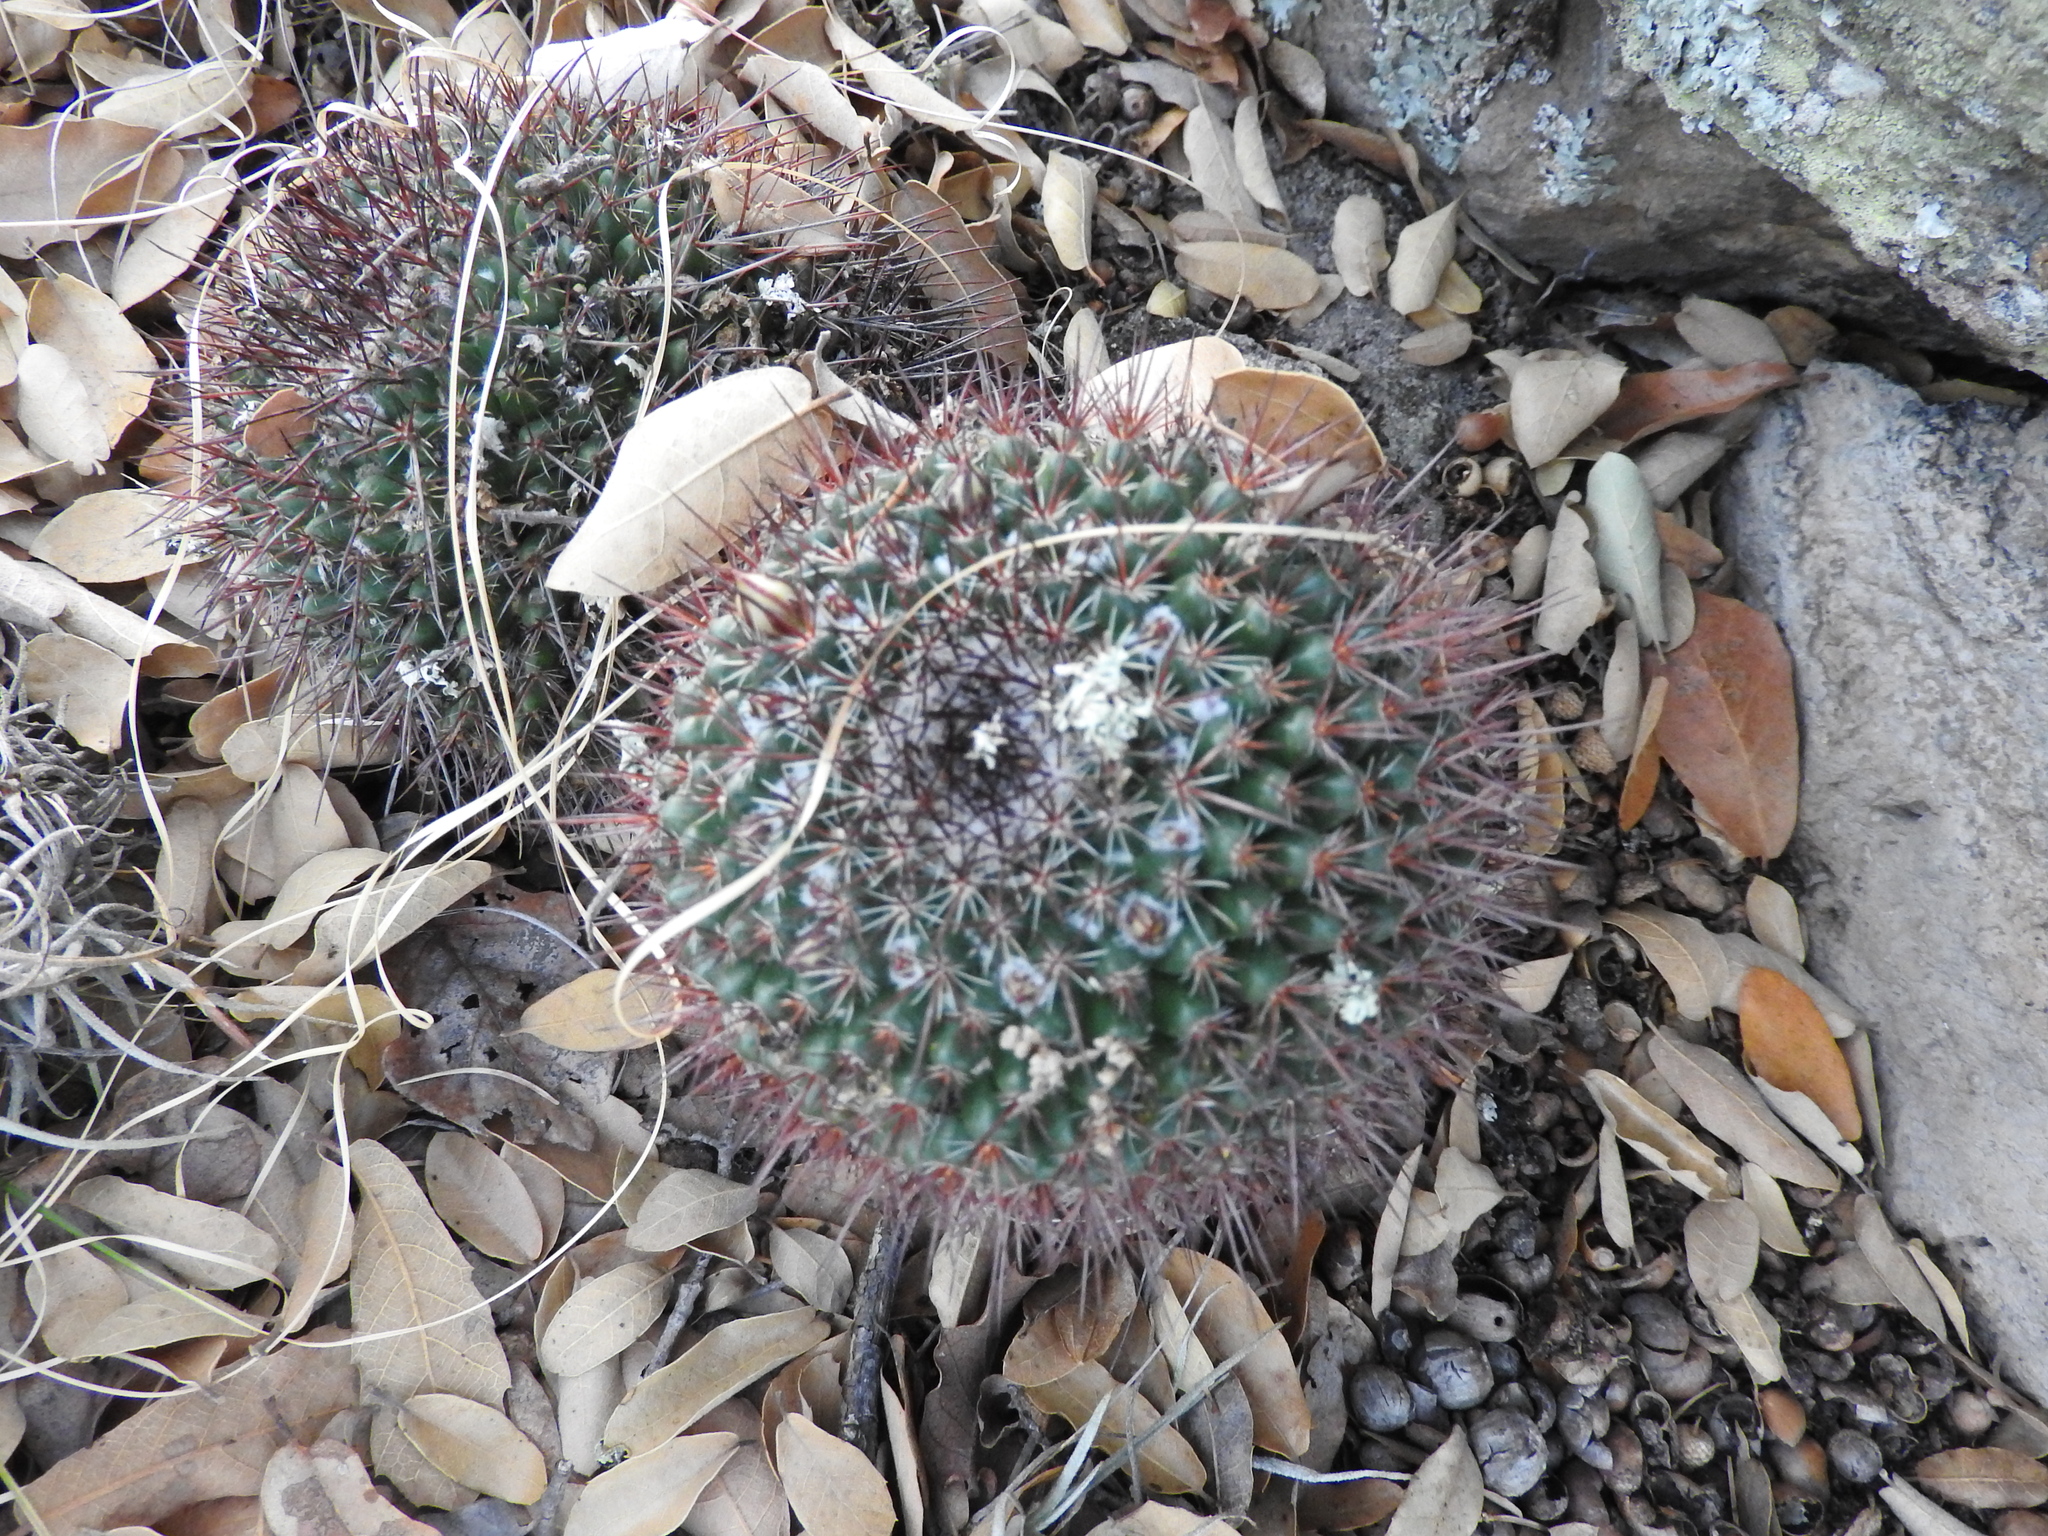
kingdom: Plantae
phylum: Tracheophyta
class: Magnoliopsida
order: Caryophyllales
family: Cactaceae
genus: Mammillaria
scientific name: Mammillaria gigantea
